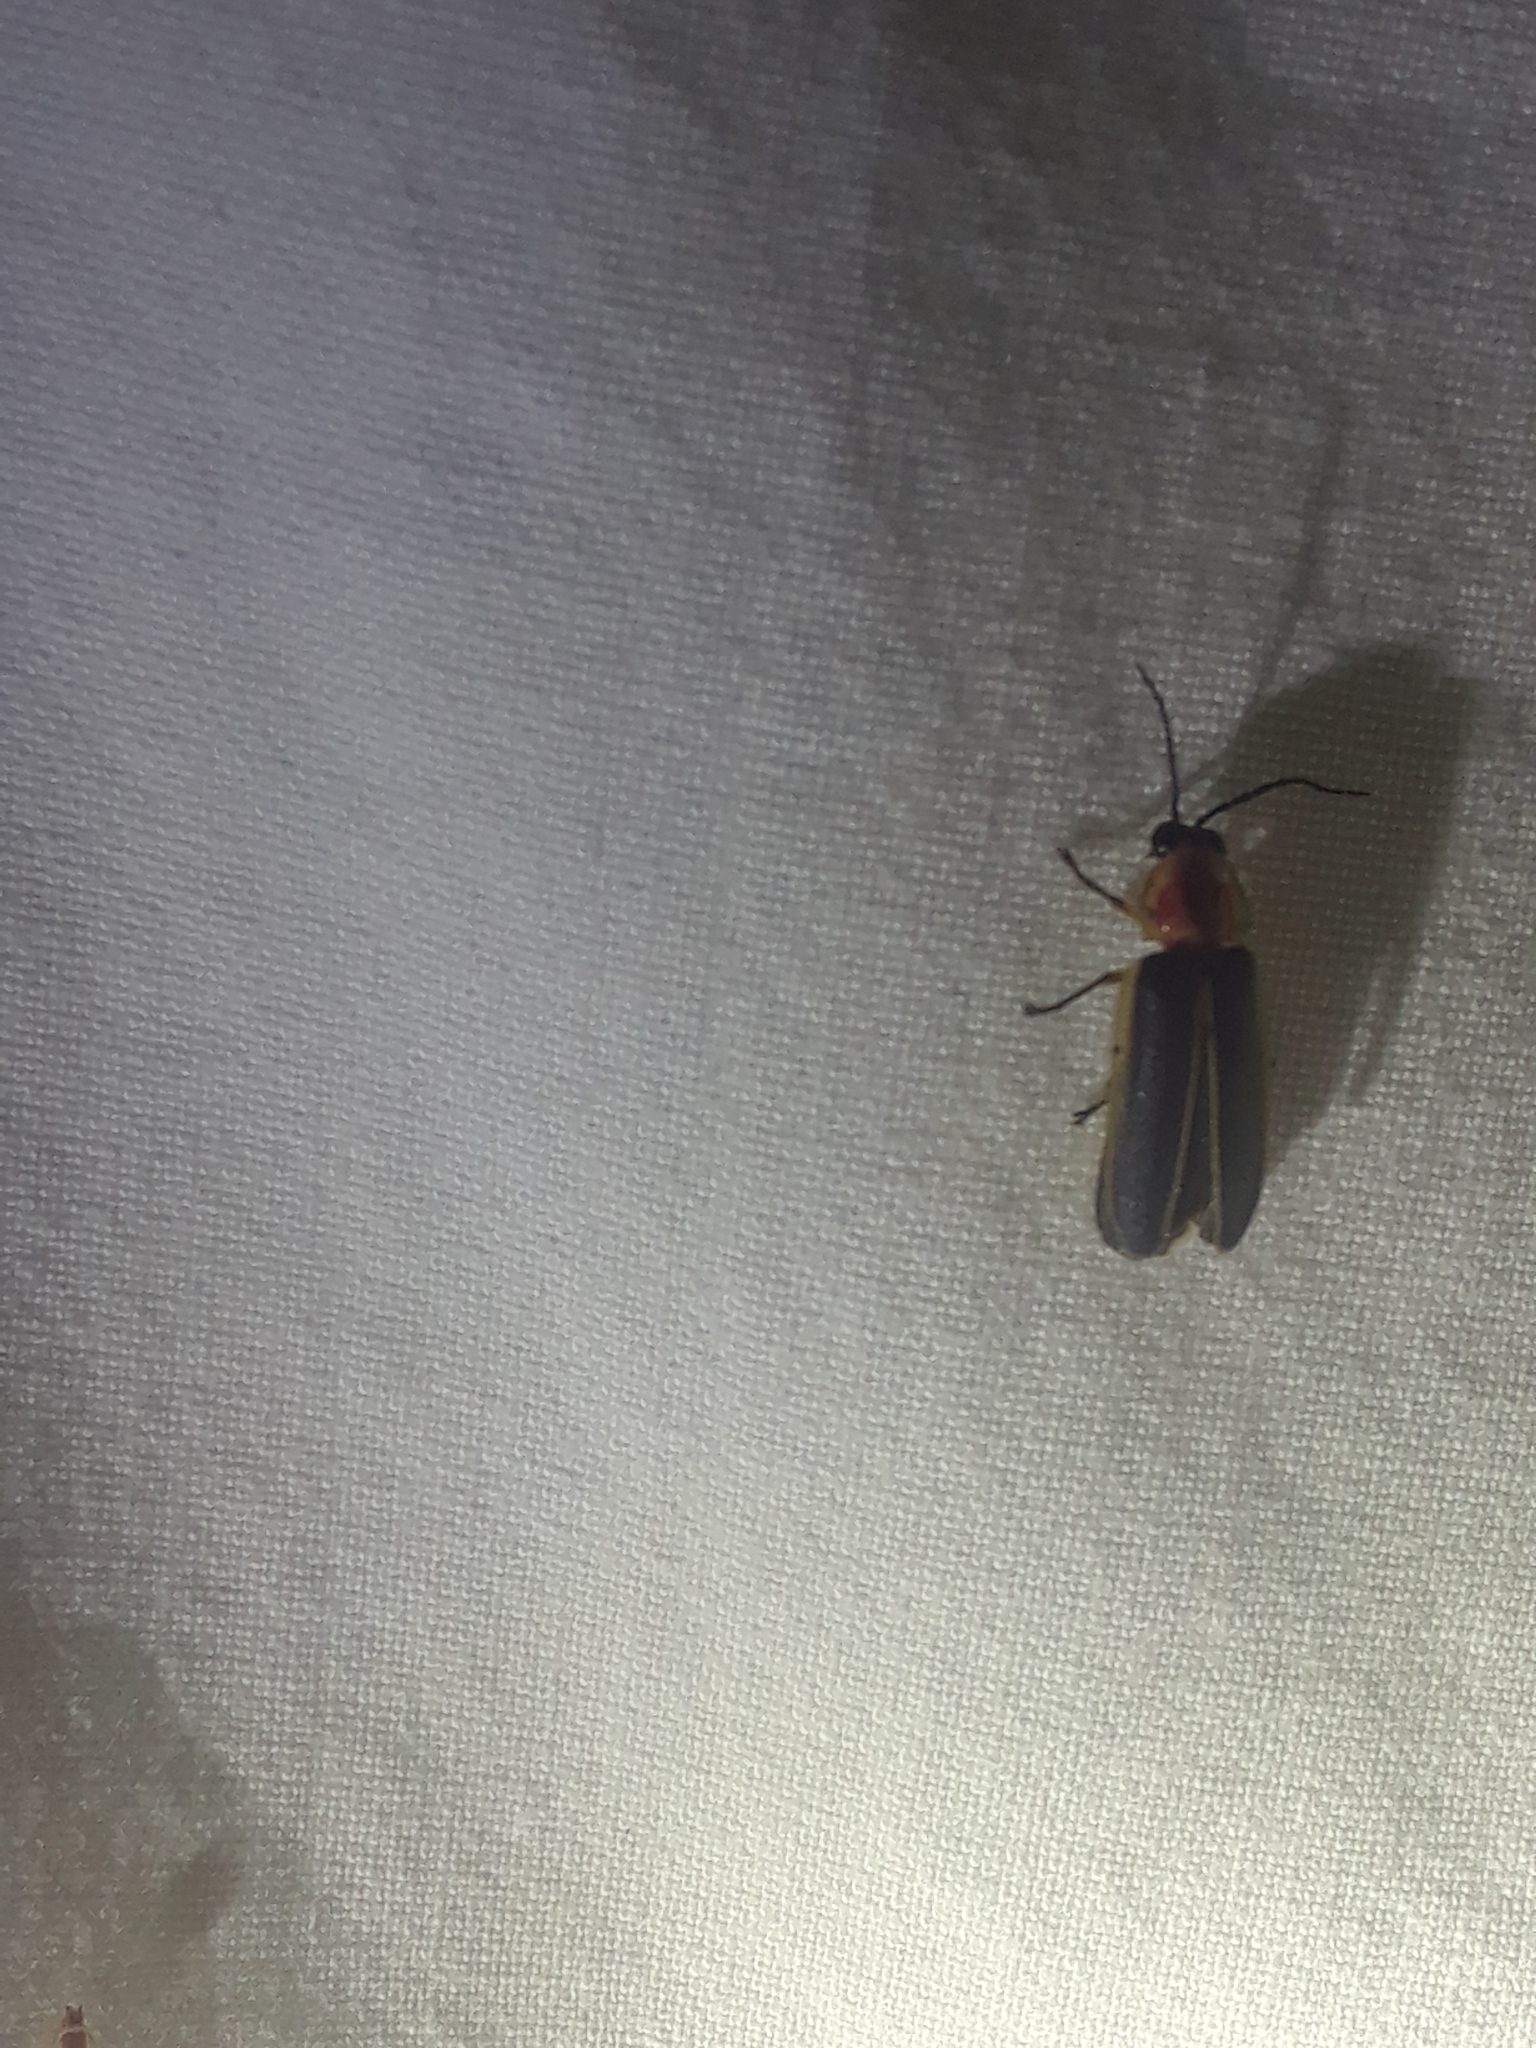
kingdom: Animalia
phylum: Arthropoda
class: Insecta
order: Coleoptera
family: Lampyridae
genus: Photinus
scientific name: Photinus pyralis
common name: Big dipper firefly
